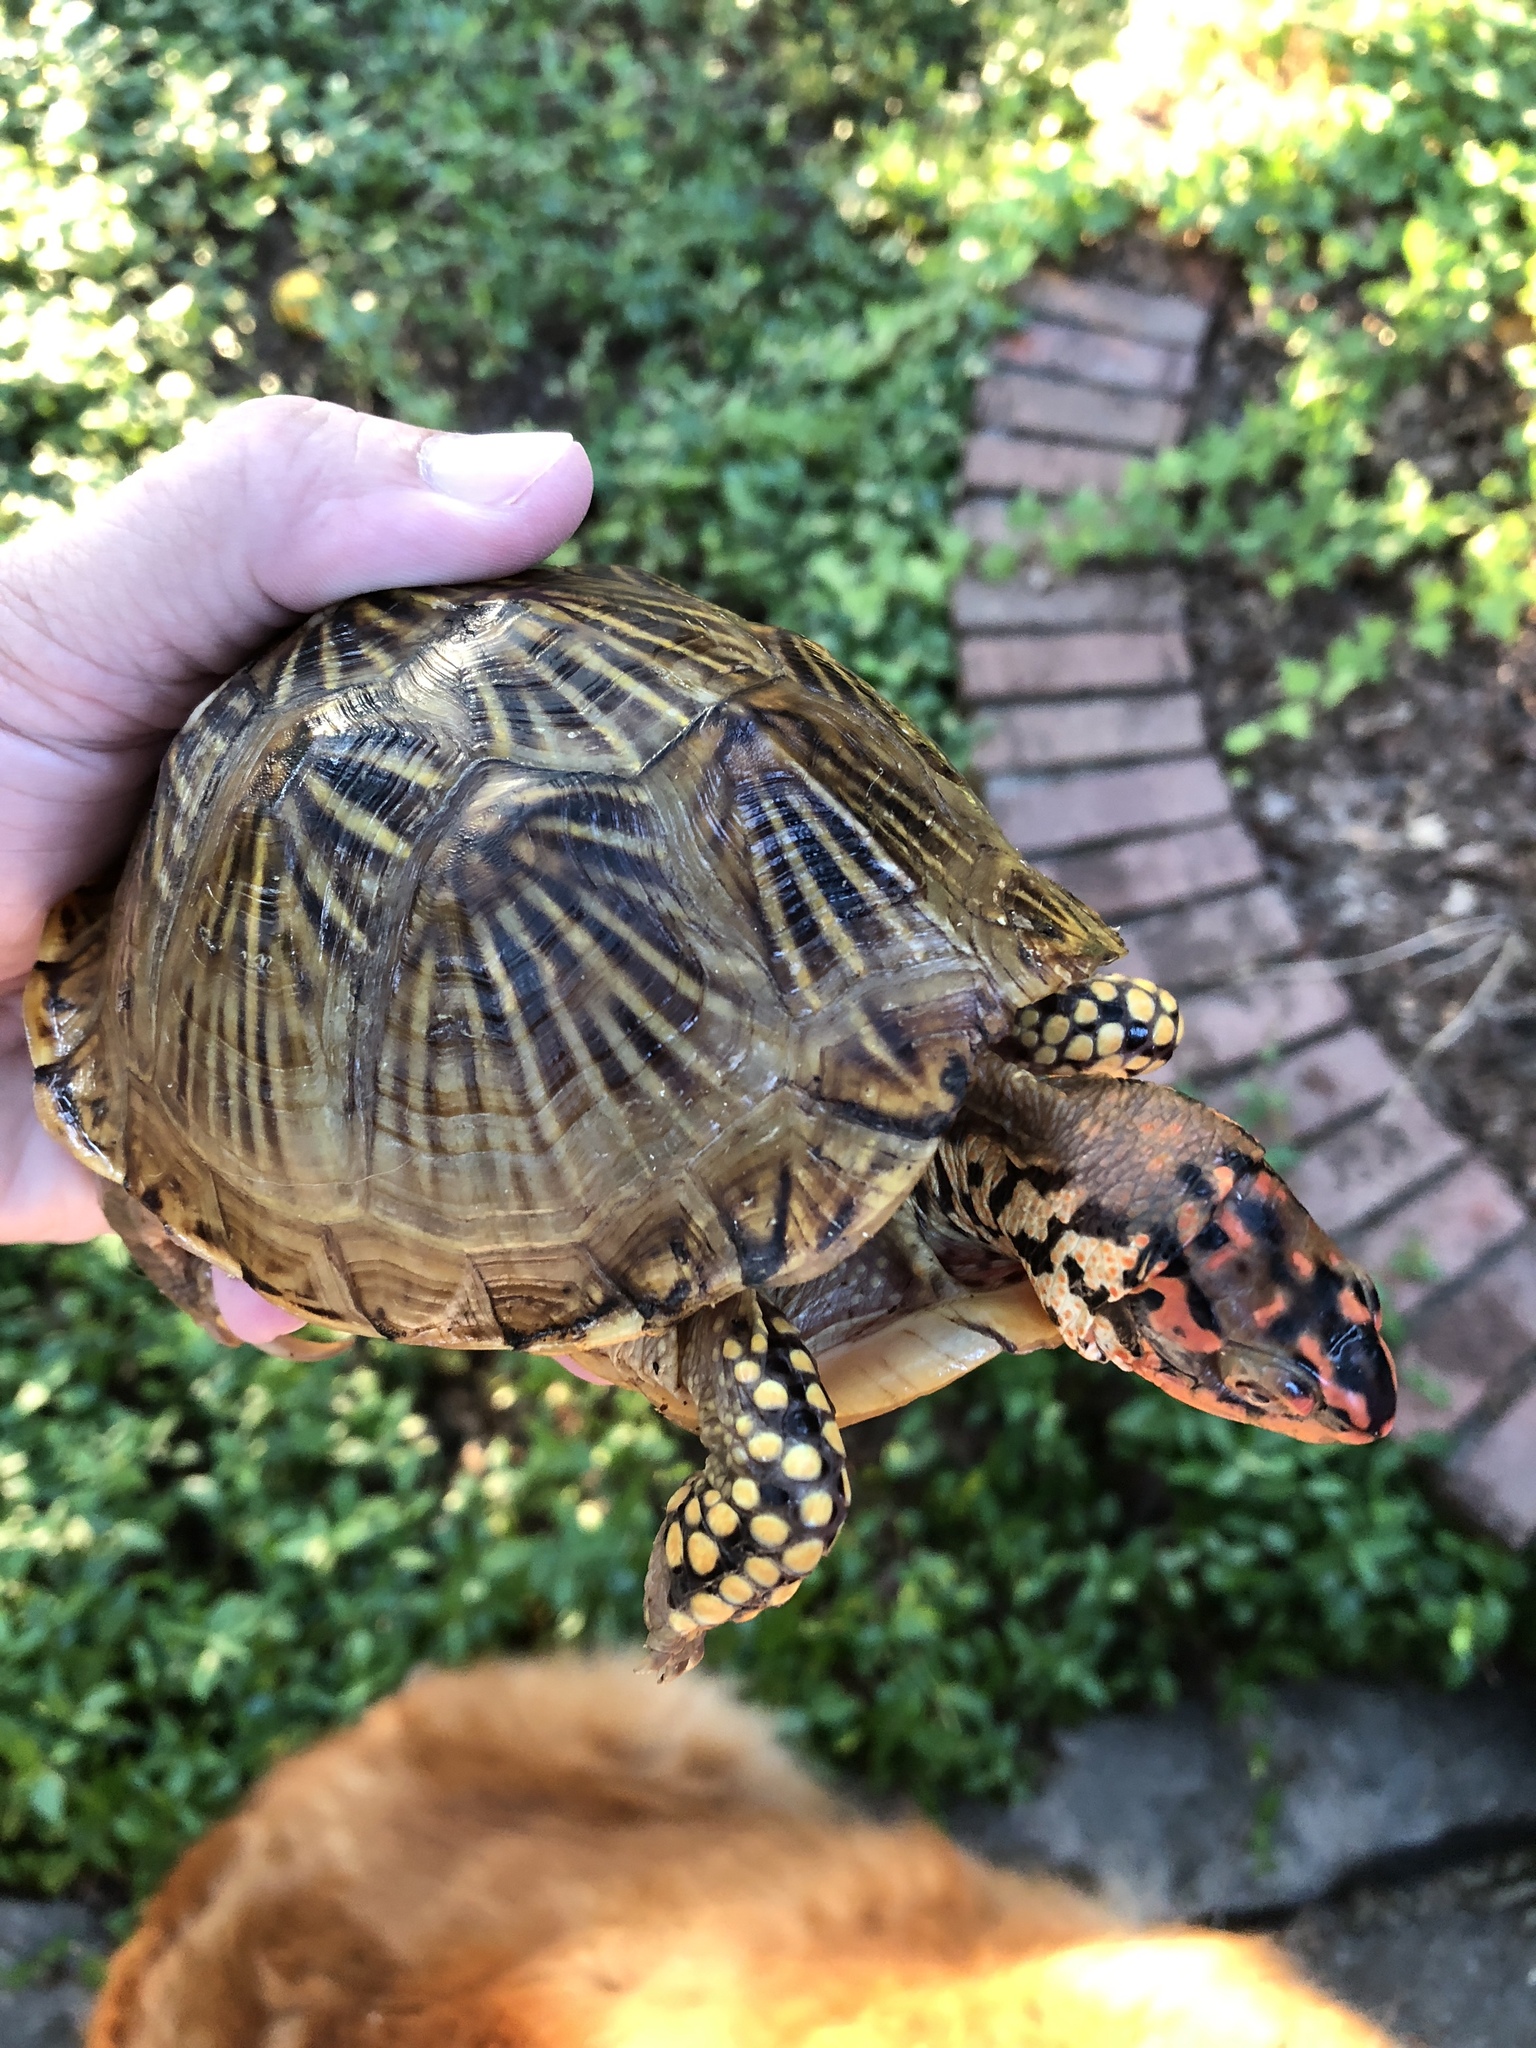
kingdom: Animalia
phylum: Chordata
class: Testudines
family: Emydidae
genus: Terrapene
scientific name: Terrapene carolina
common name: Common box turtle
